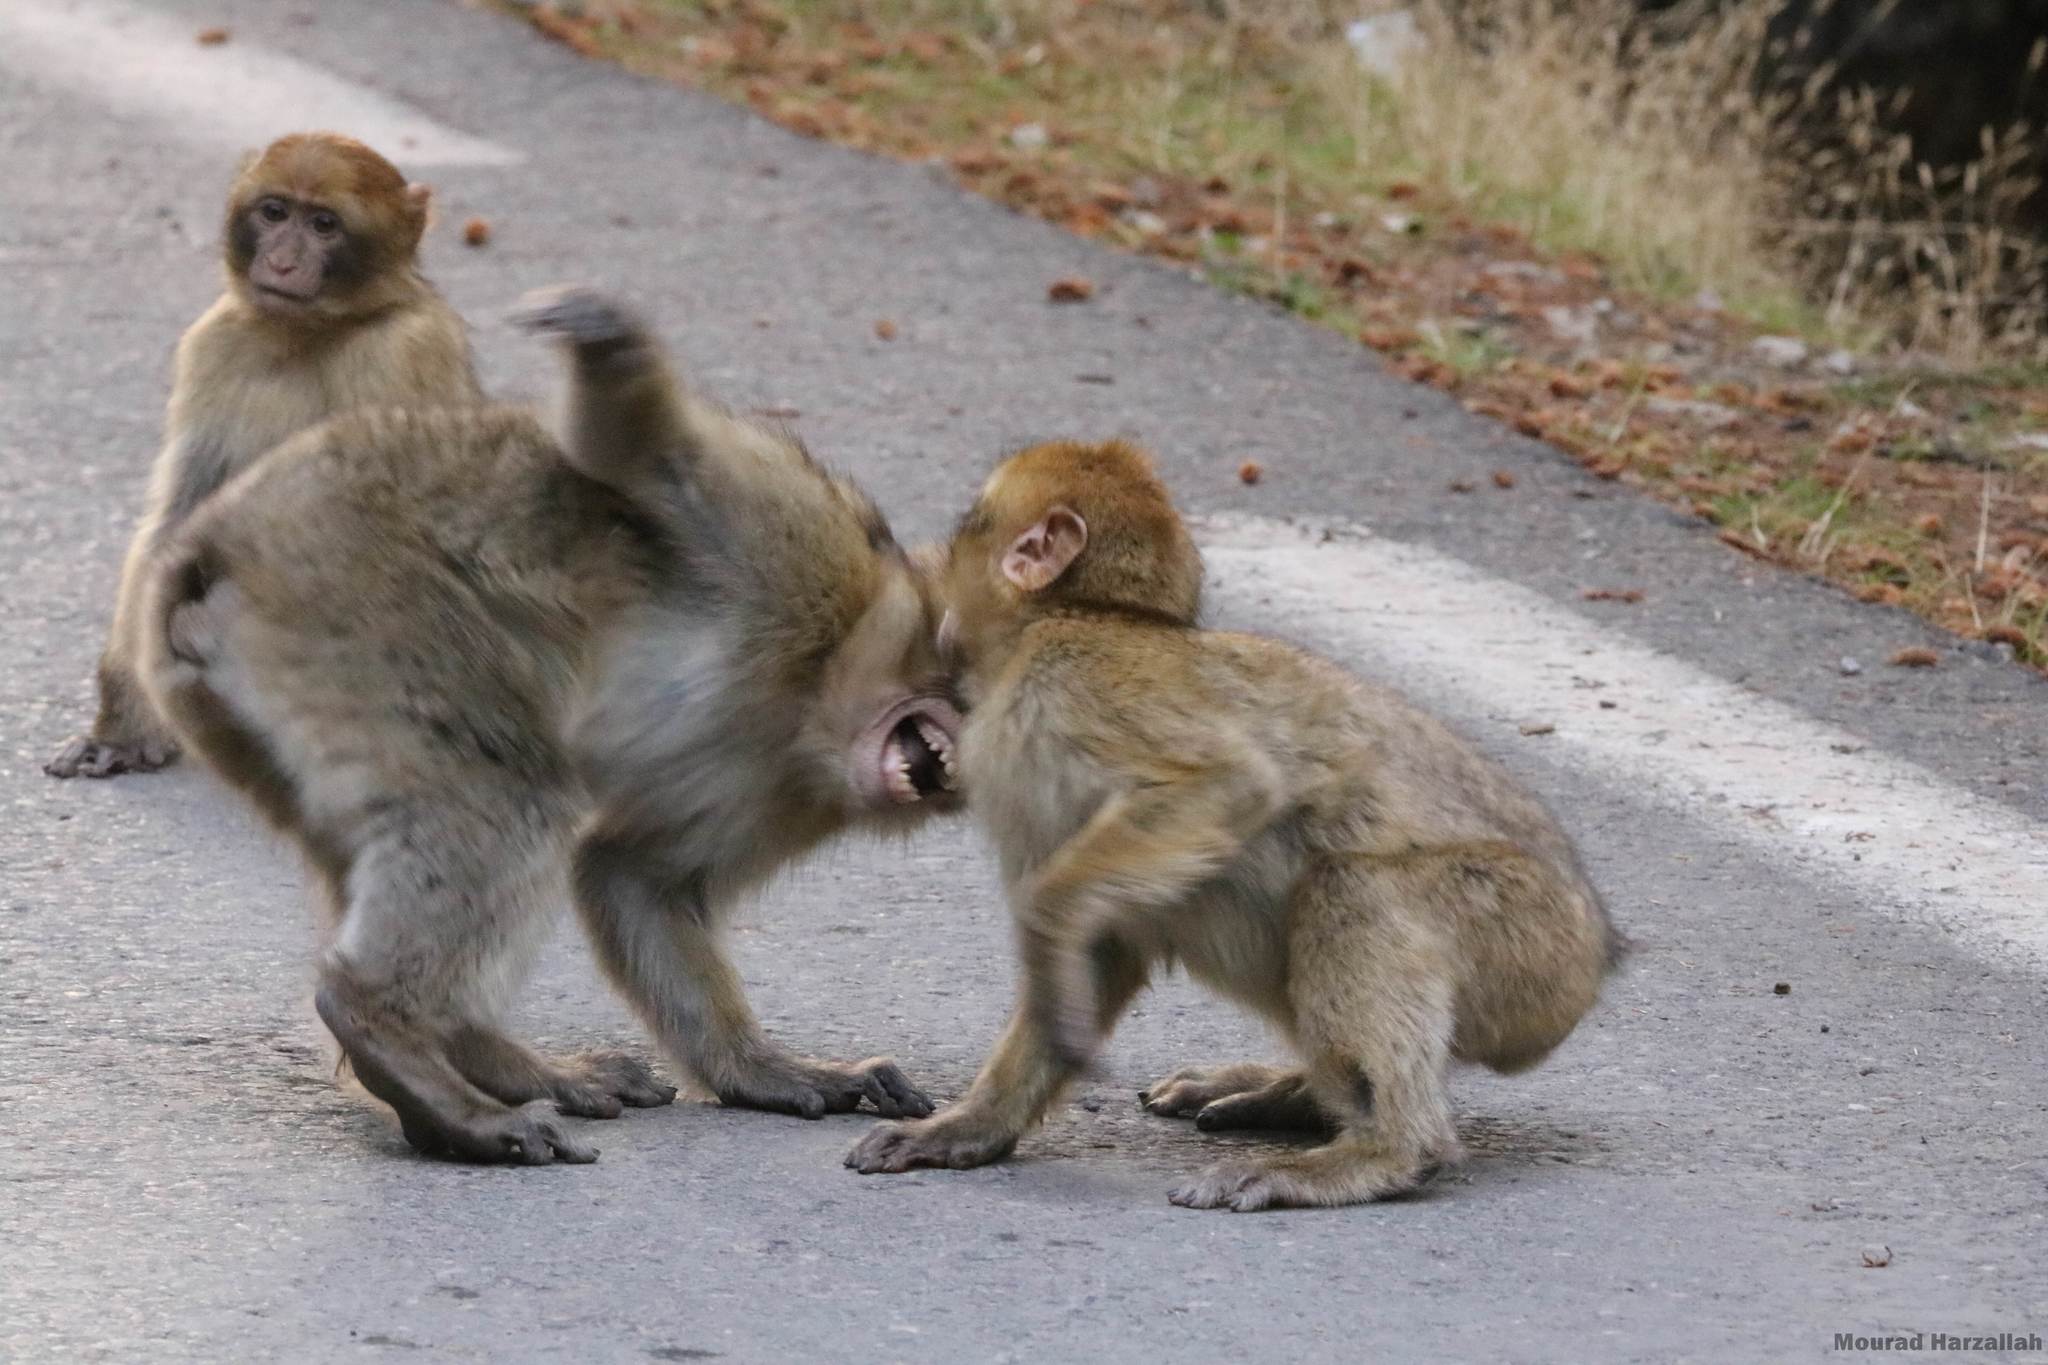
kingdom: Animalia
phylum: Chordata
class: Mammalia
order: Primates
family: Cercopithecidae
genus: Macaca
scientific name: Macaca sylvanus
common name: Barbary macaque
